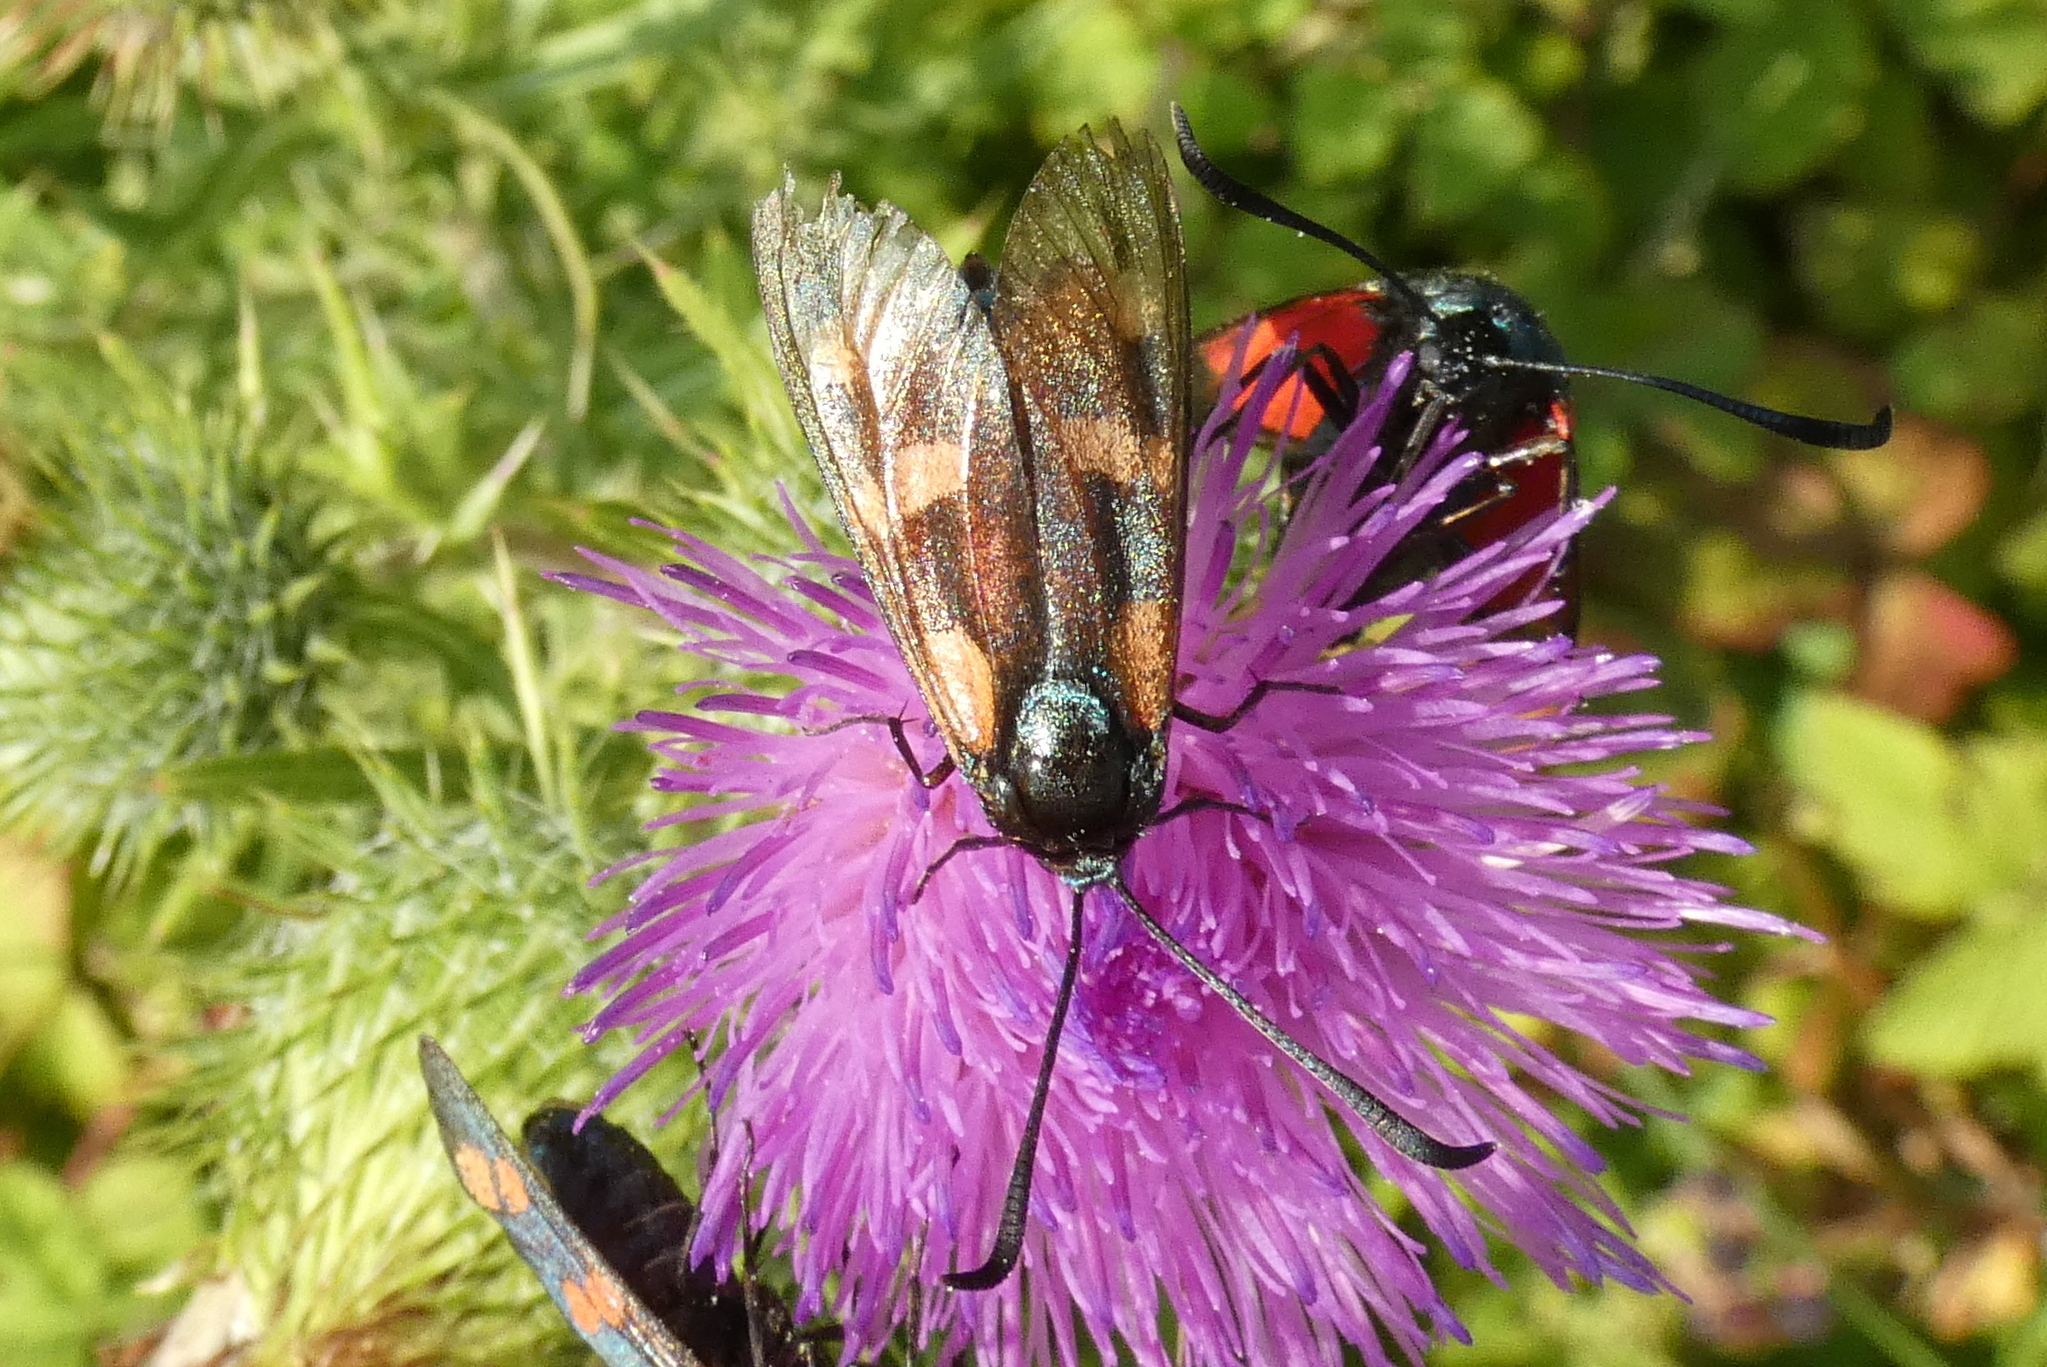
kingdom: Animalia
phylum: Arthropoda
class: Insecta
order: Lepidoptera
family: Zygaenidae
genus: Zygaena
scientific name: Zygaena filipendulae
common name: Six-spot burnet
